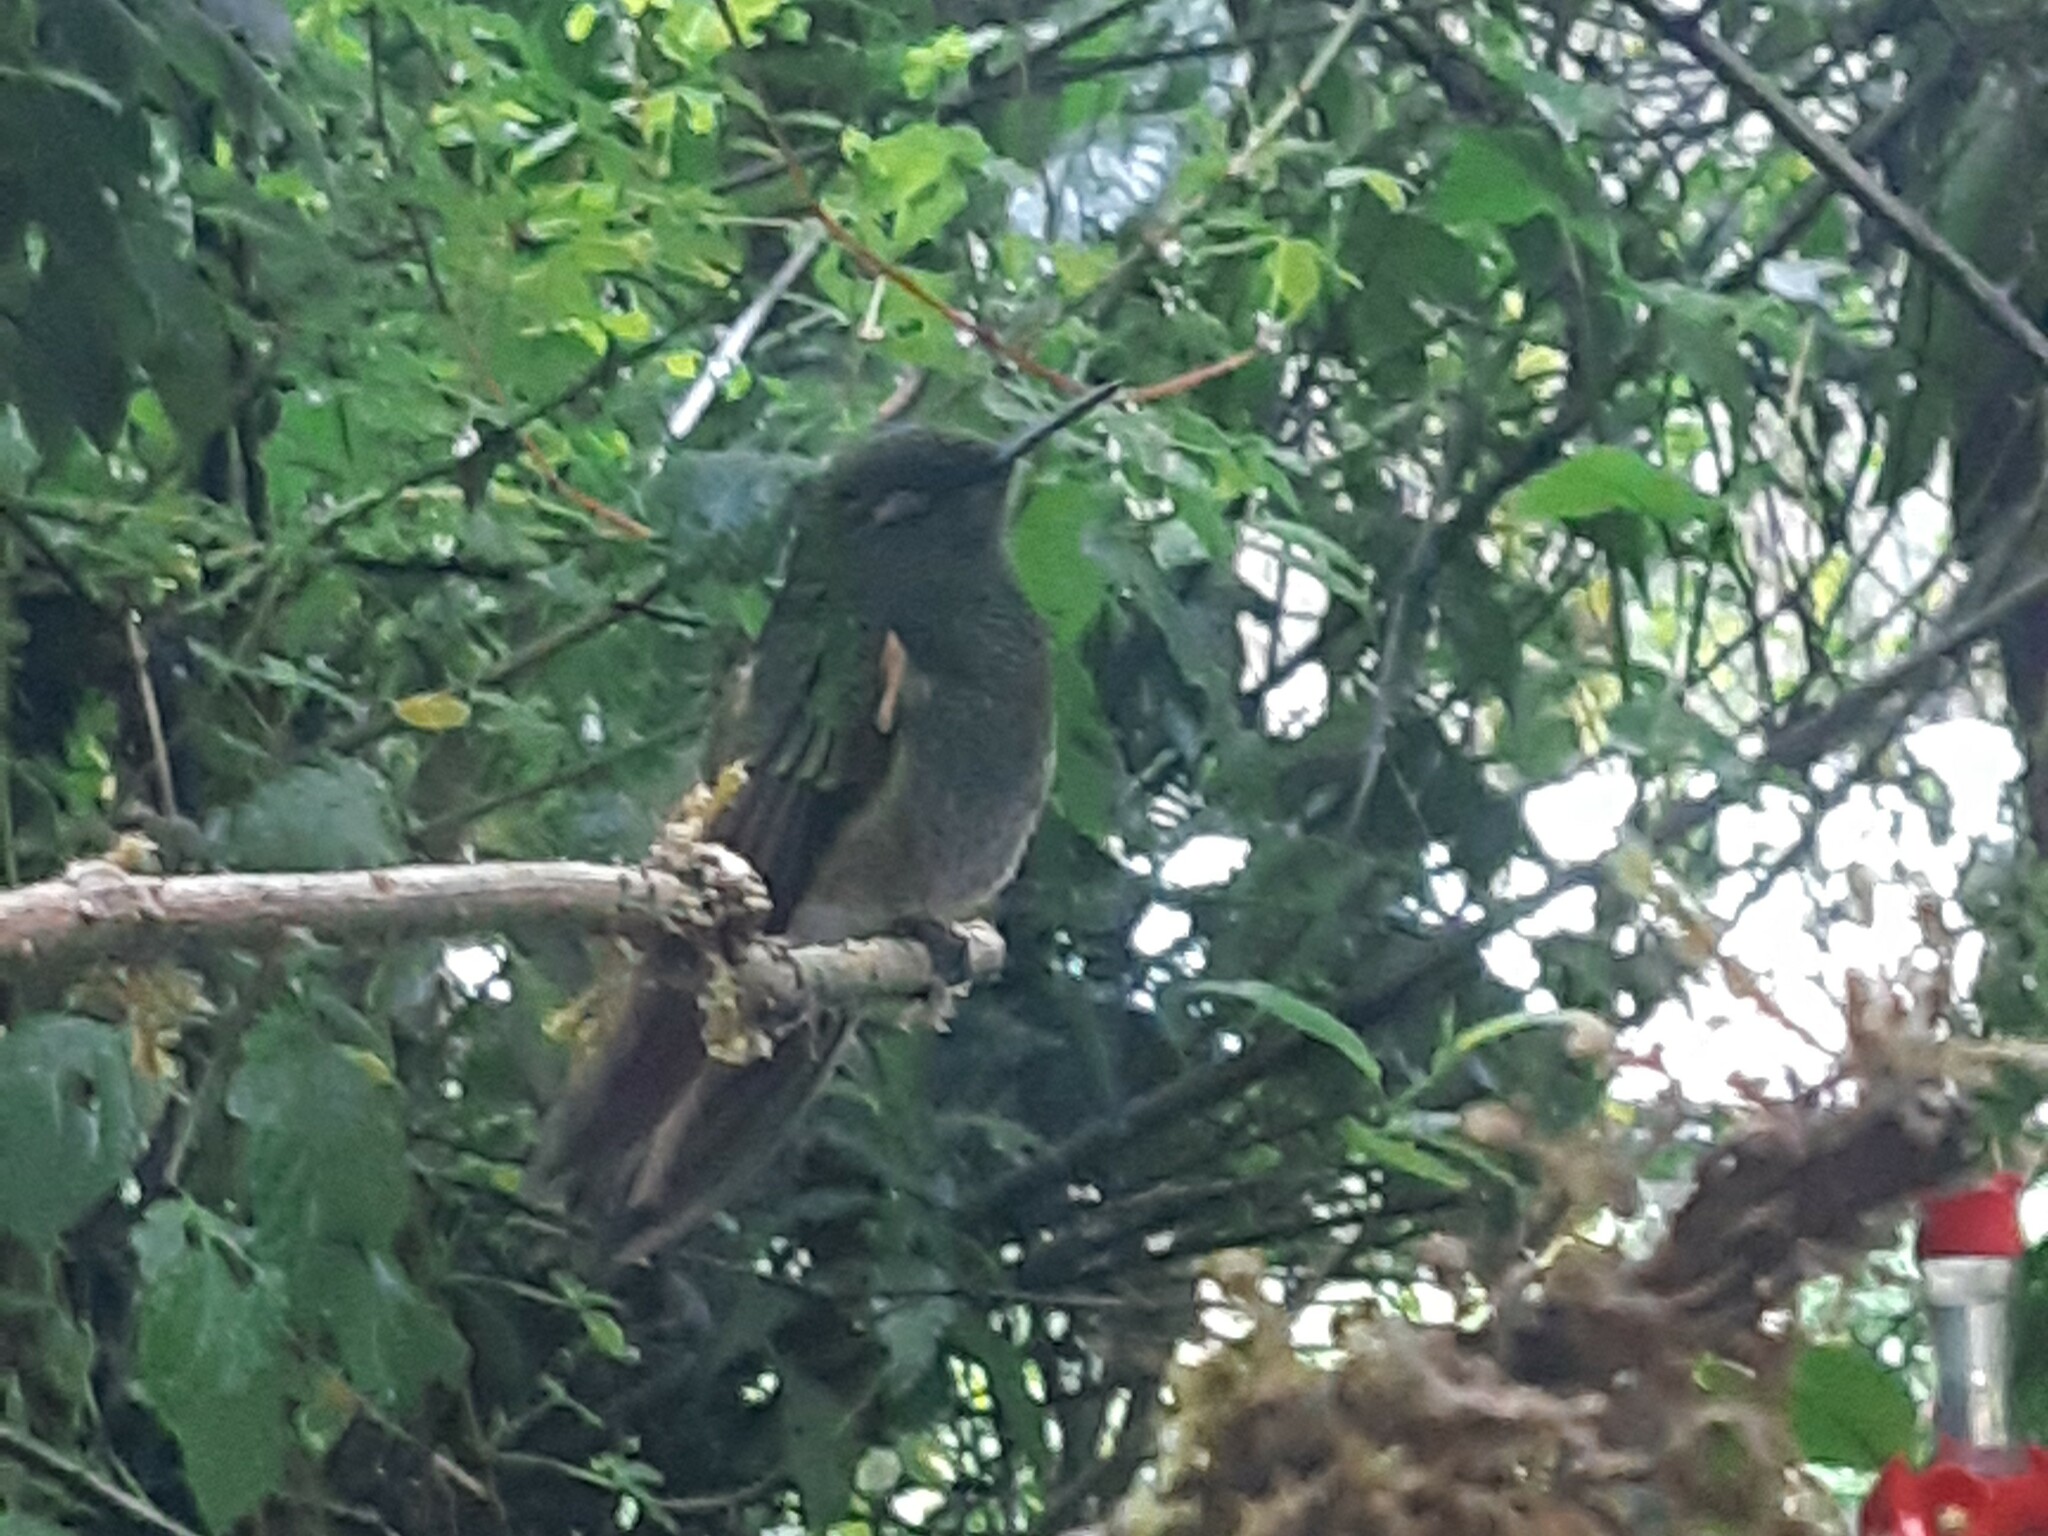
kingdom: Animalia
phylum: Chordata
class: Aves
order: Apodiformes
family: Trochilidae
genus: Boissonneaua
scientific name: Boissonneaua flavescens
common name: Buff-tailed coronet
